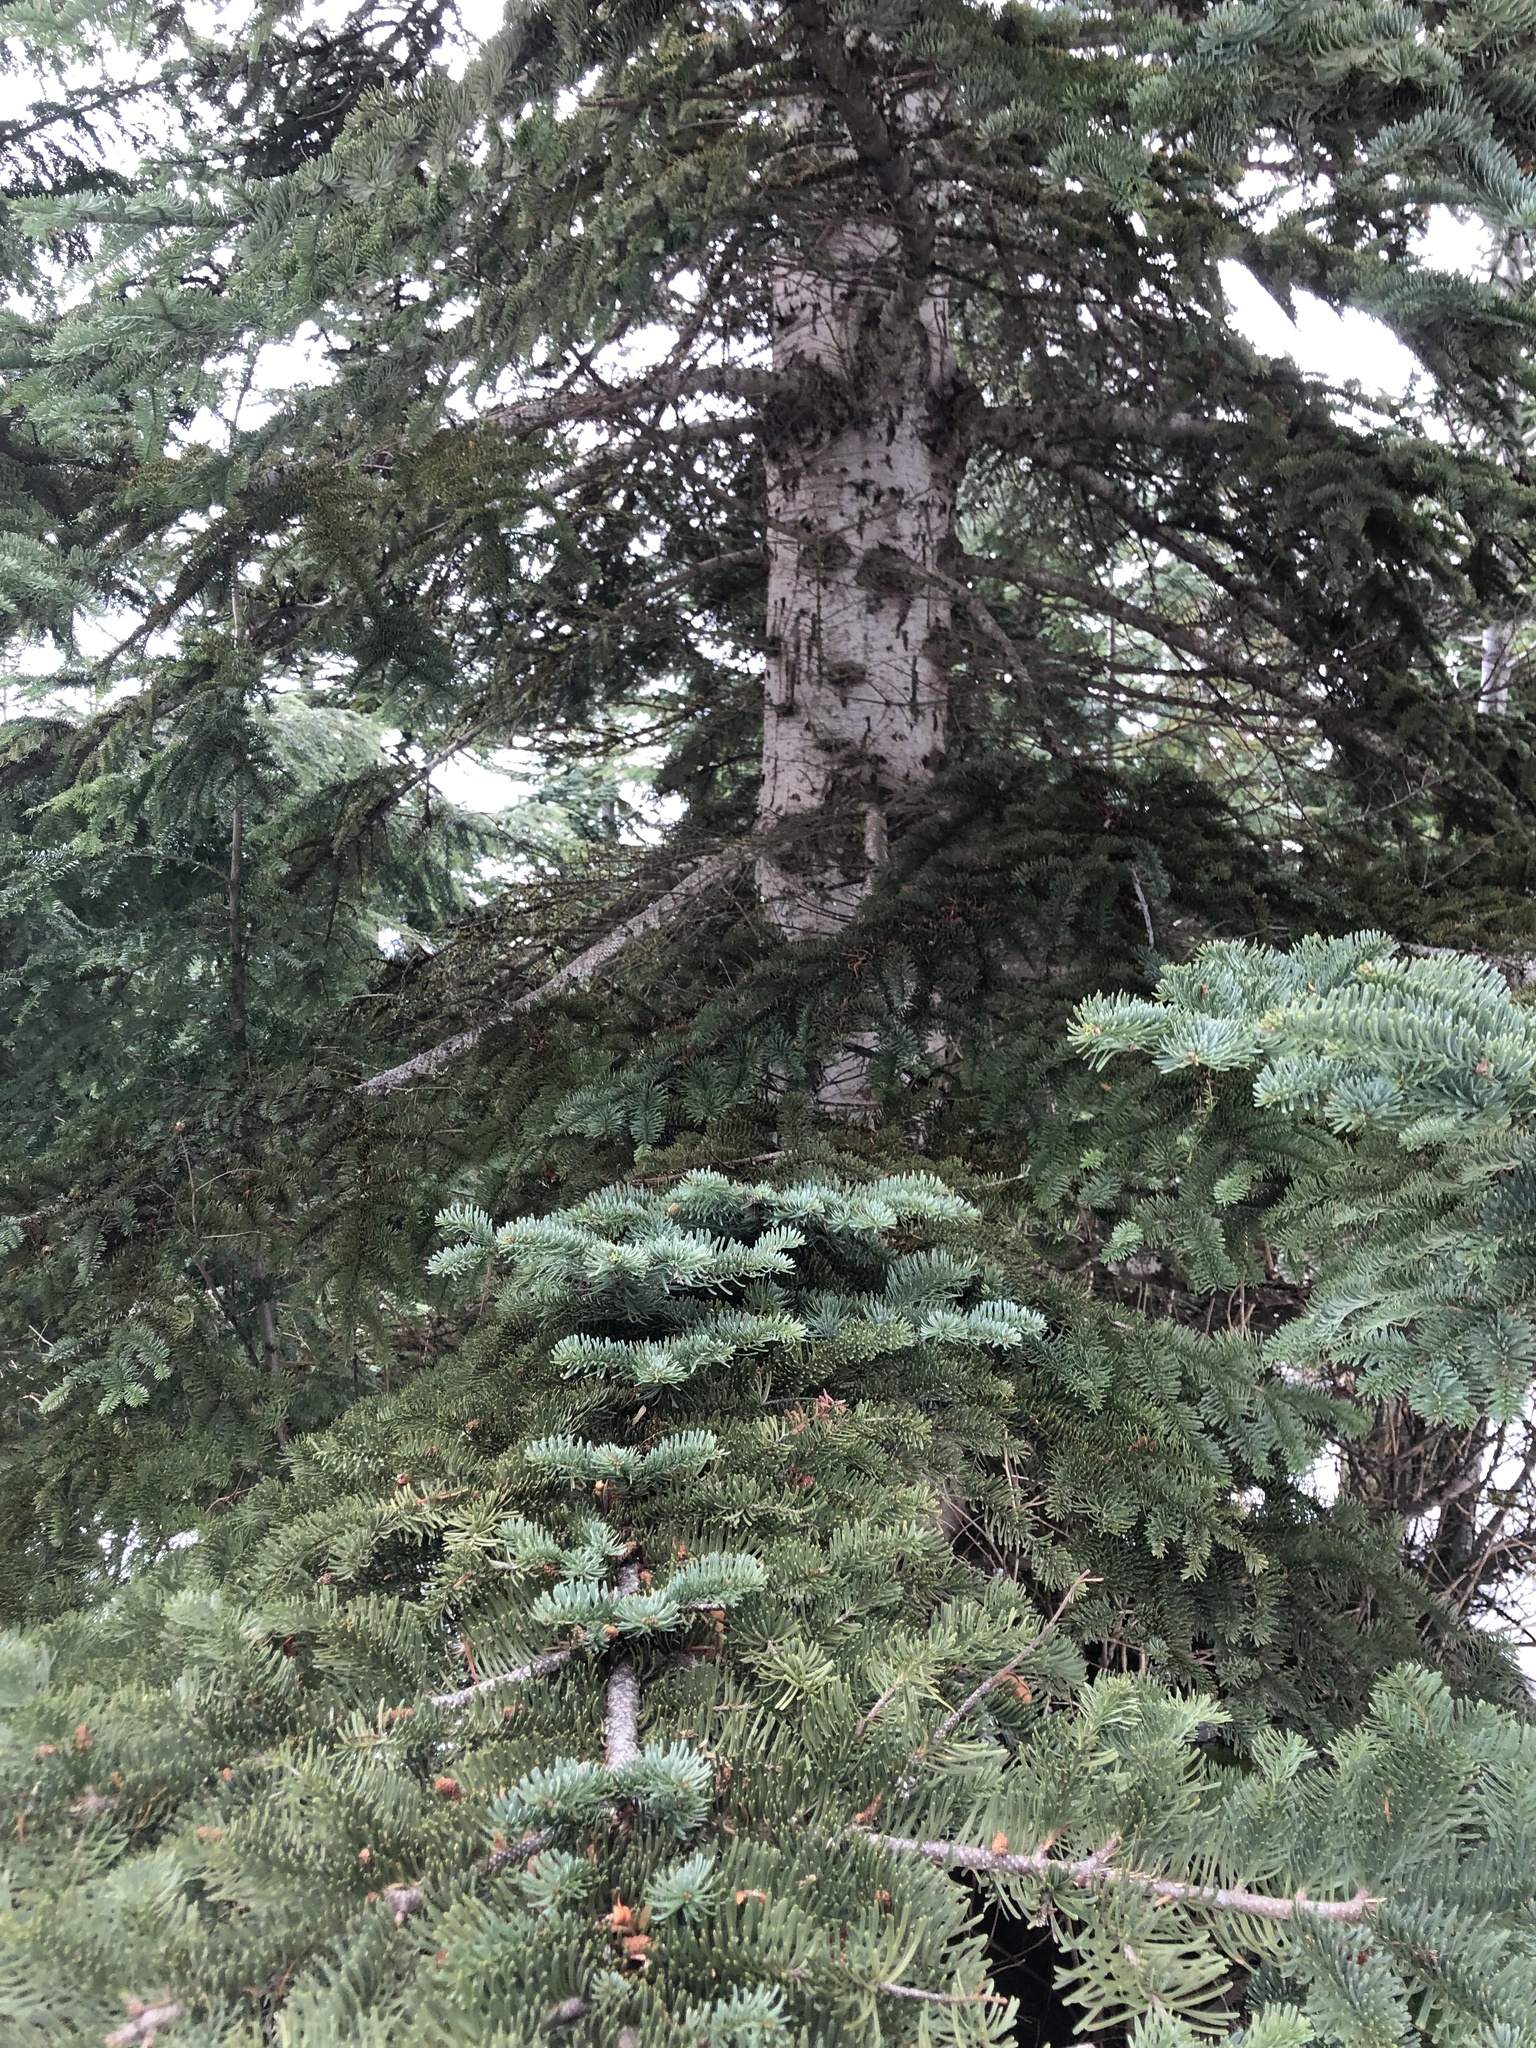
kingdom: Plantae
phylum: Tracheophyta
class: Pinopsida
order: Pinales
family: Pinaceae
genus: Abies
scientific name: Abies procera
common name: Noble fir
